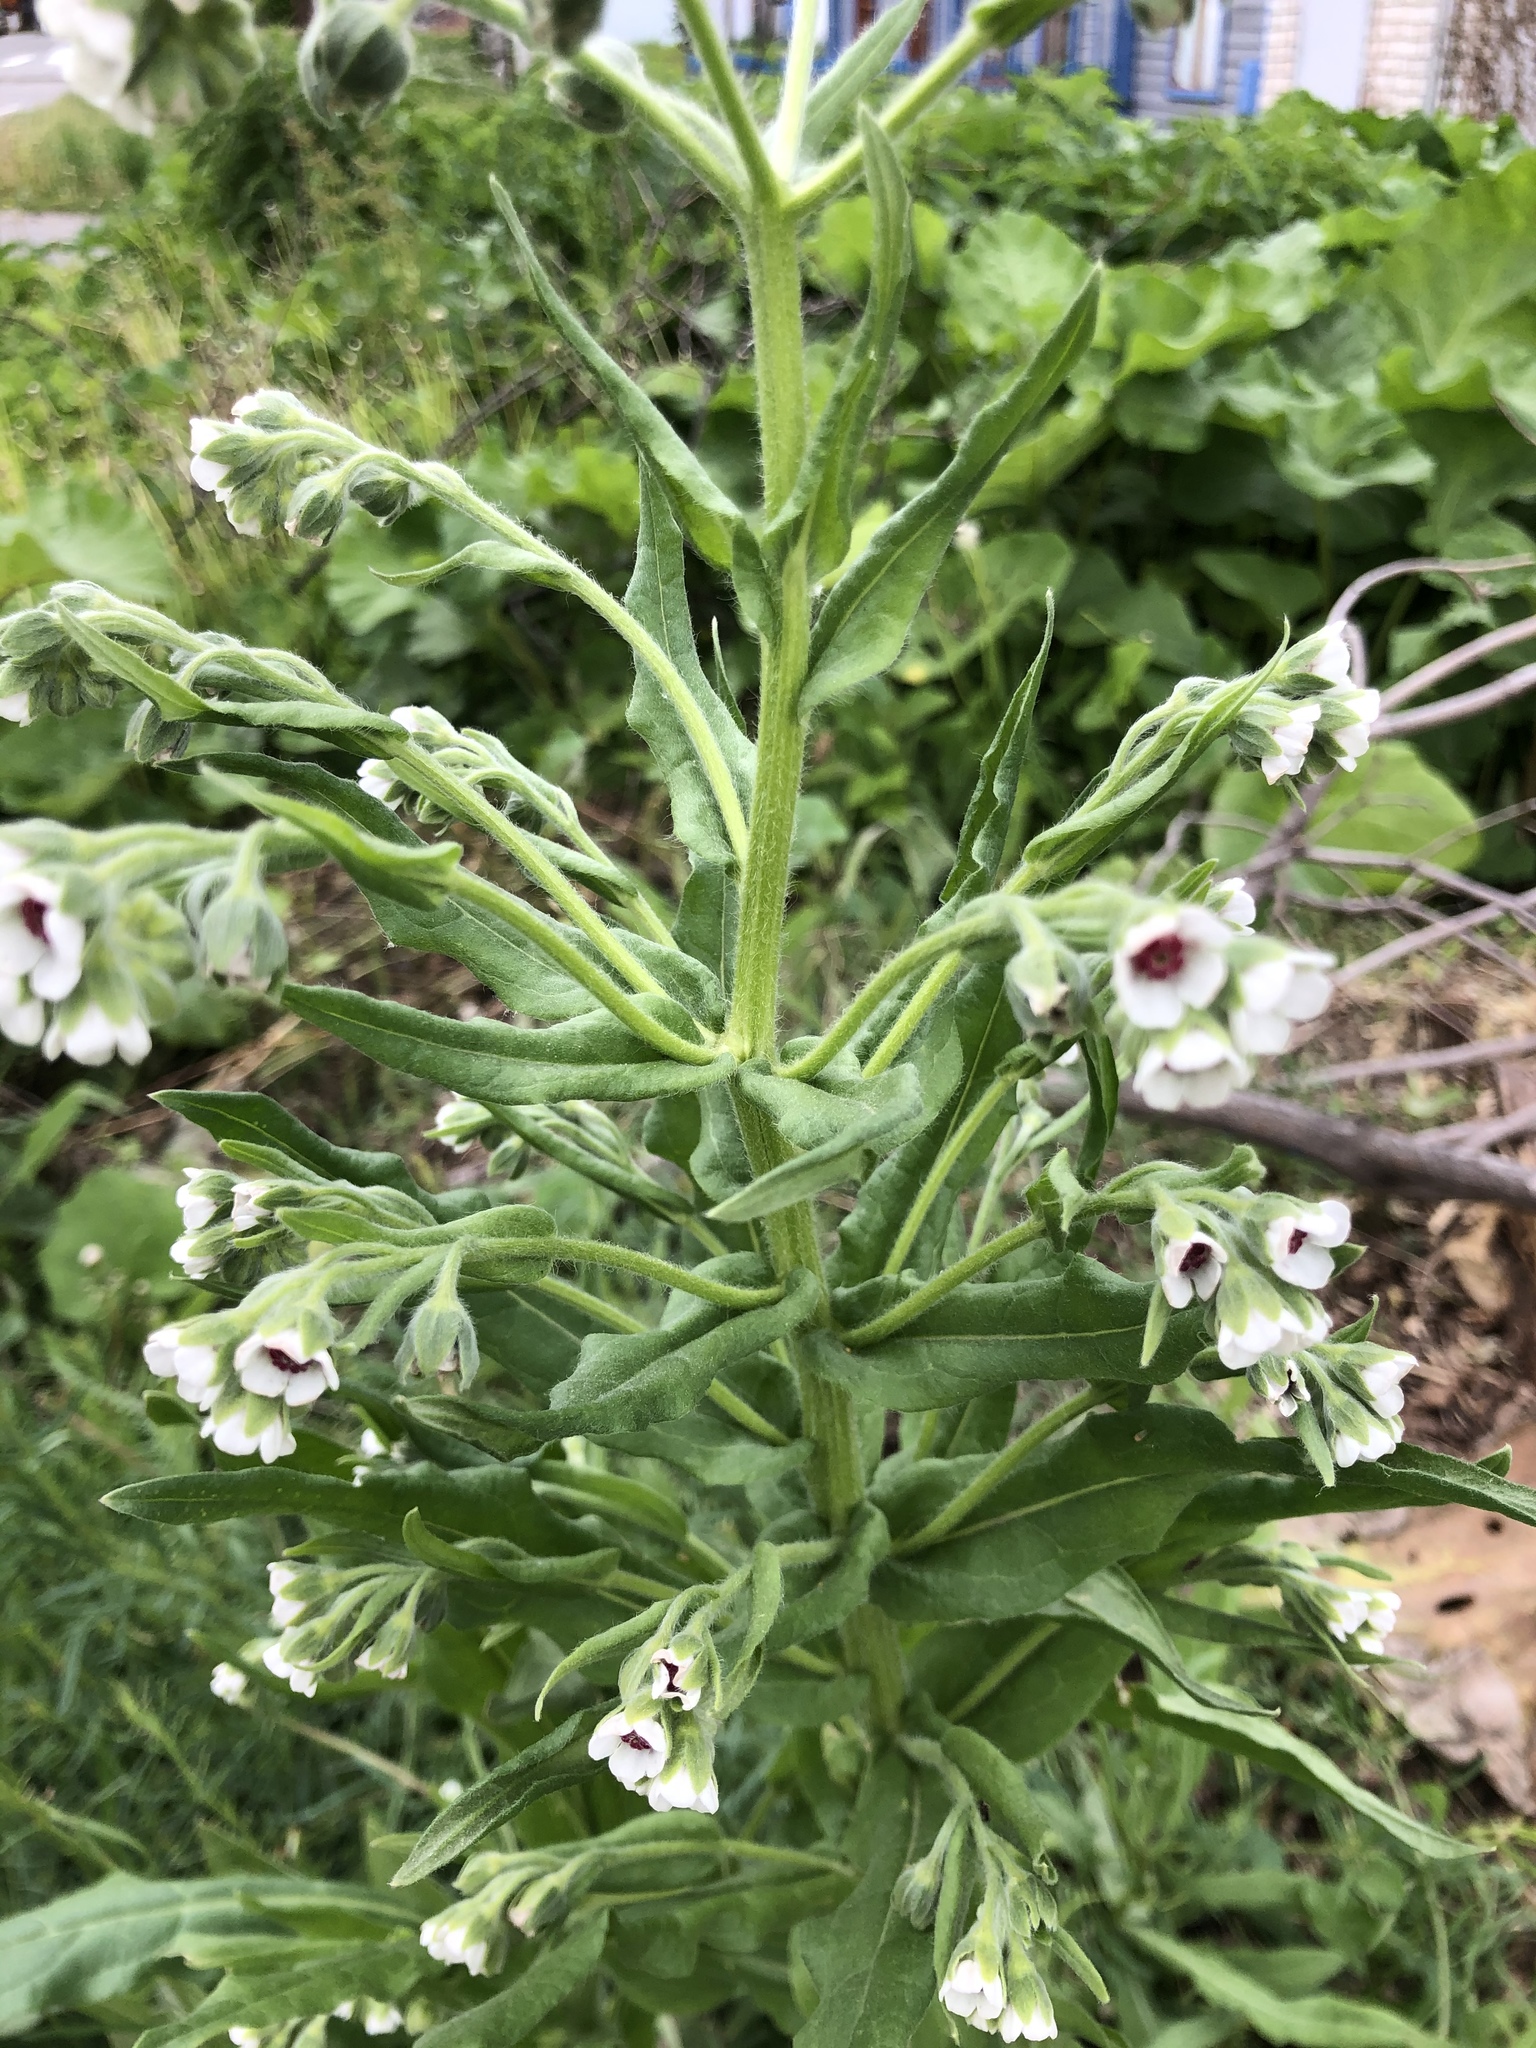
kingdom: Plantae
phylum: Tracheophyta
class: Magnoliopsida
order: Boraginales
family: Boraginaceae
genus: Cynoglossum
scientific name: Cynoglossum officinale
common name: Hound's-tongue
